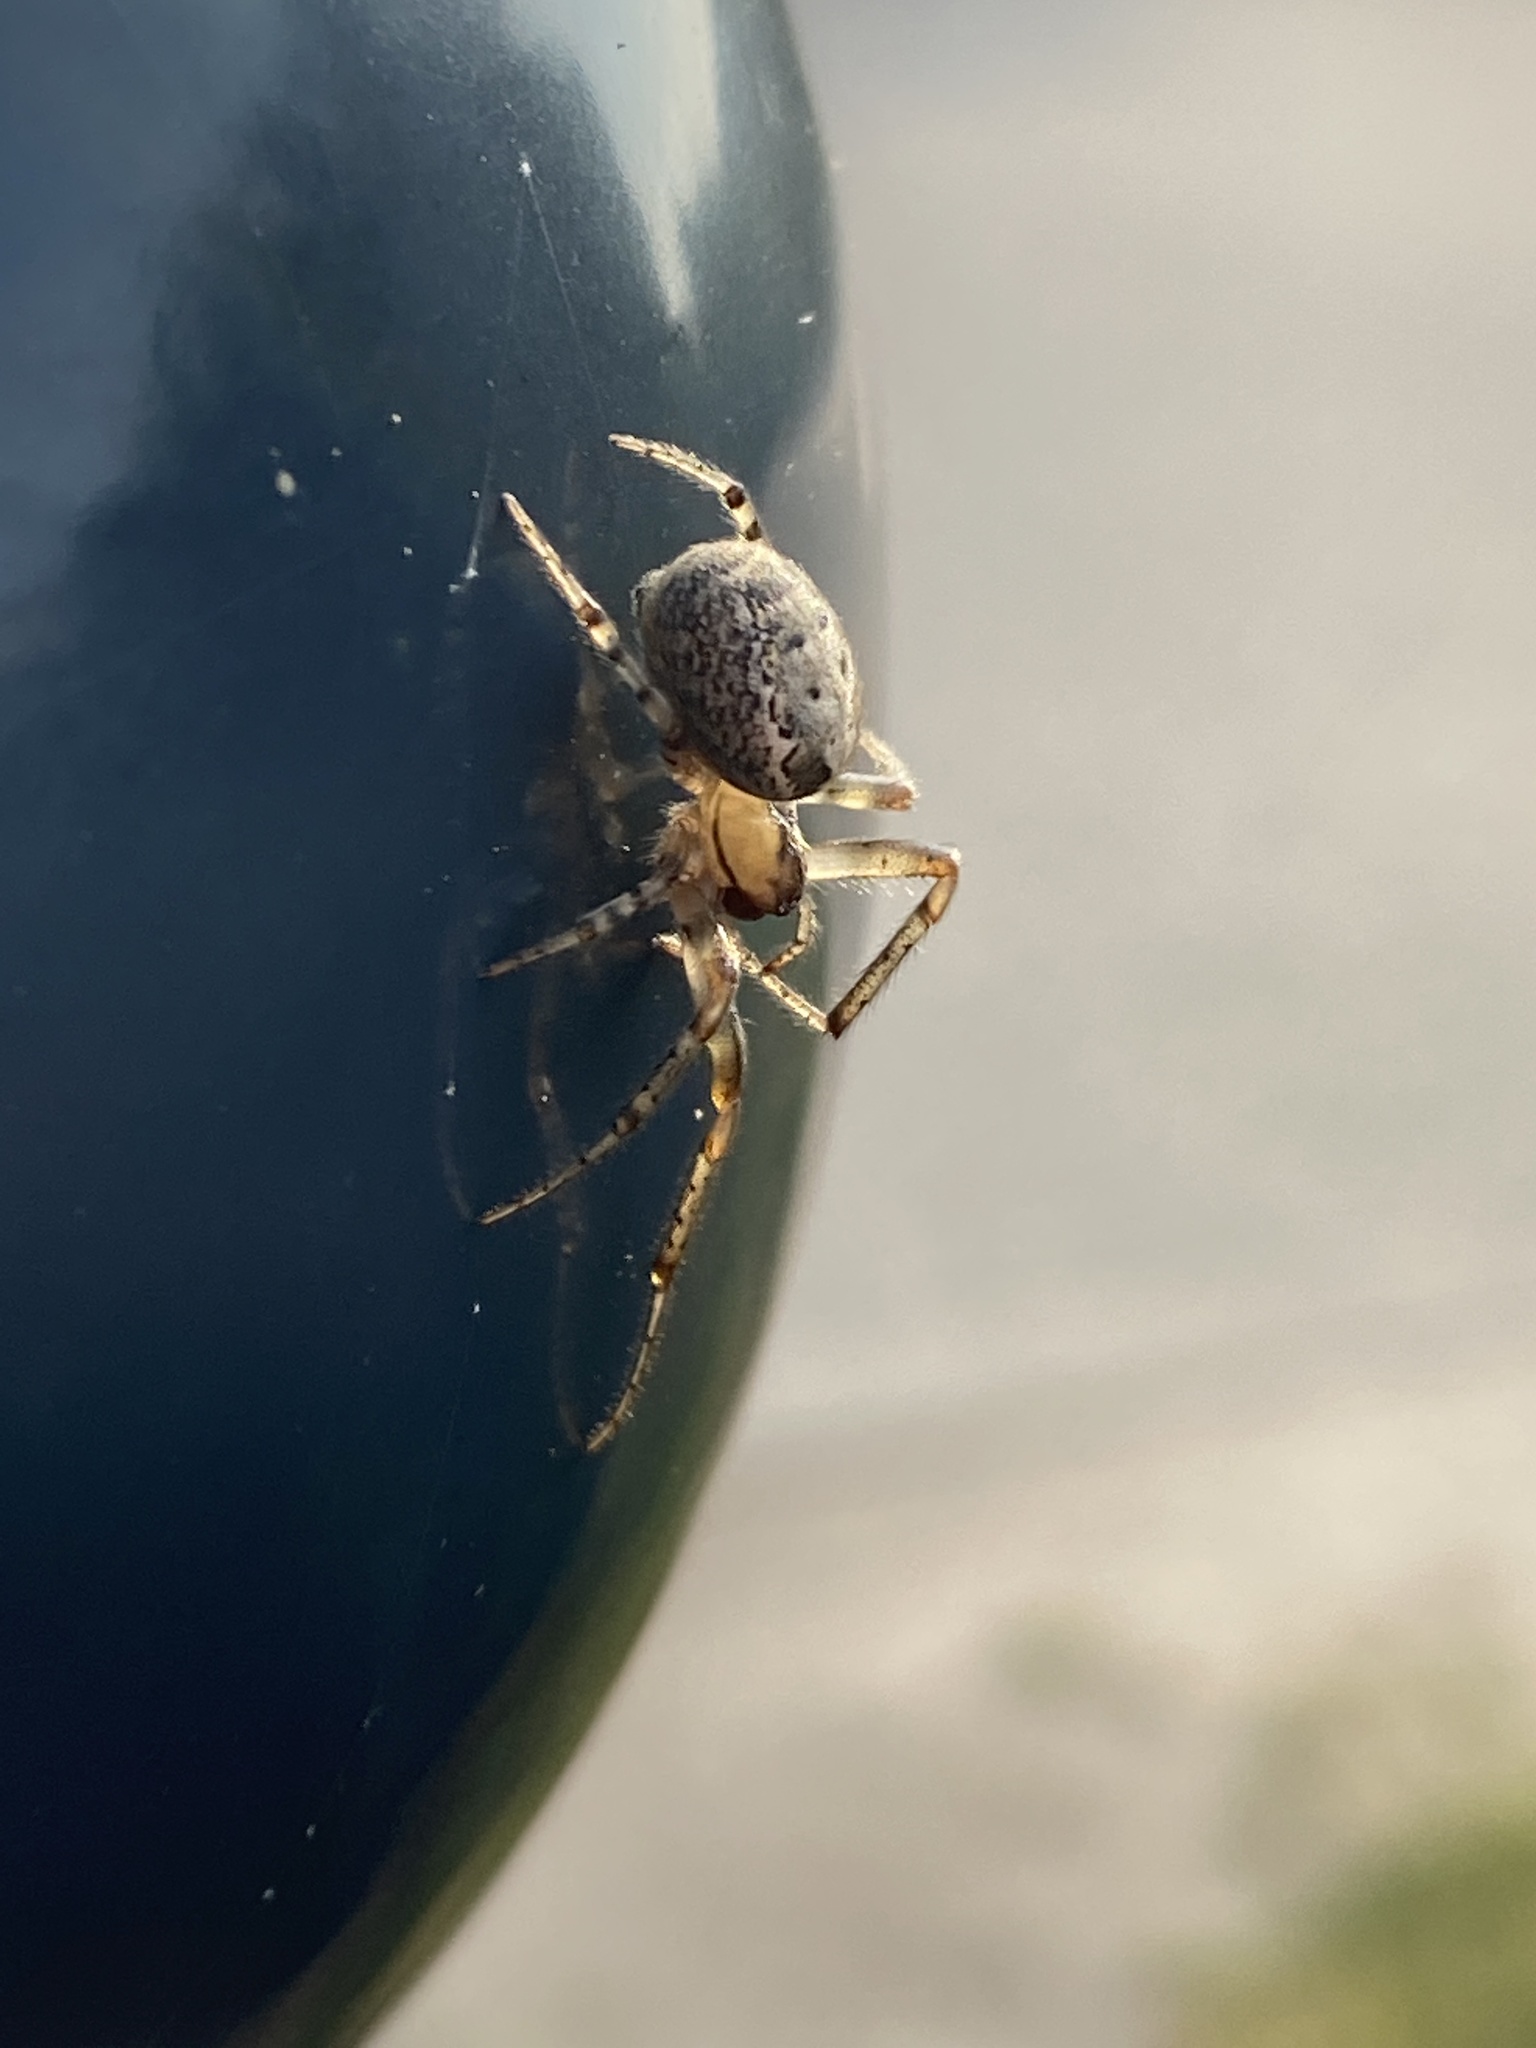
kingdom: Animalia
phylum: Arthropoda
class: Arachnida
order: Araneae
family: Araneidae
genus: Zygiella
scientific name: Zygiella x-notata
